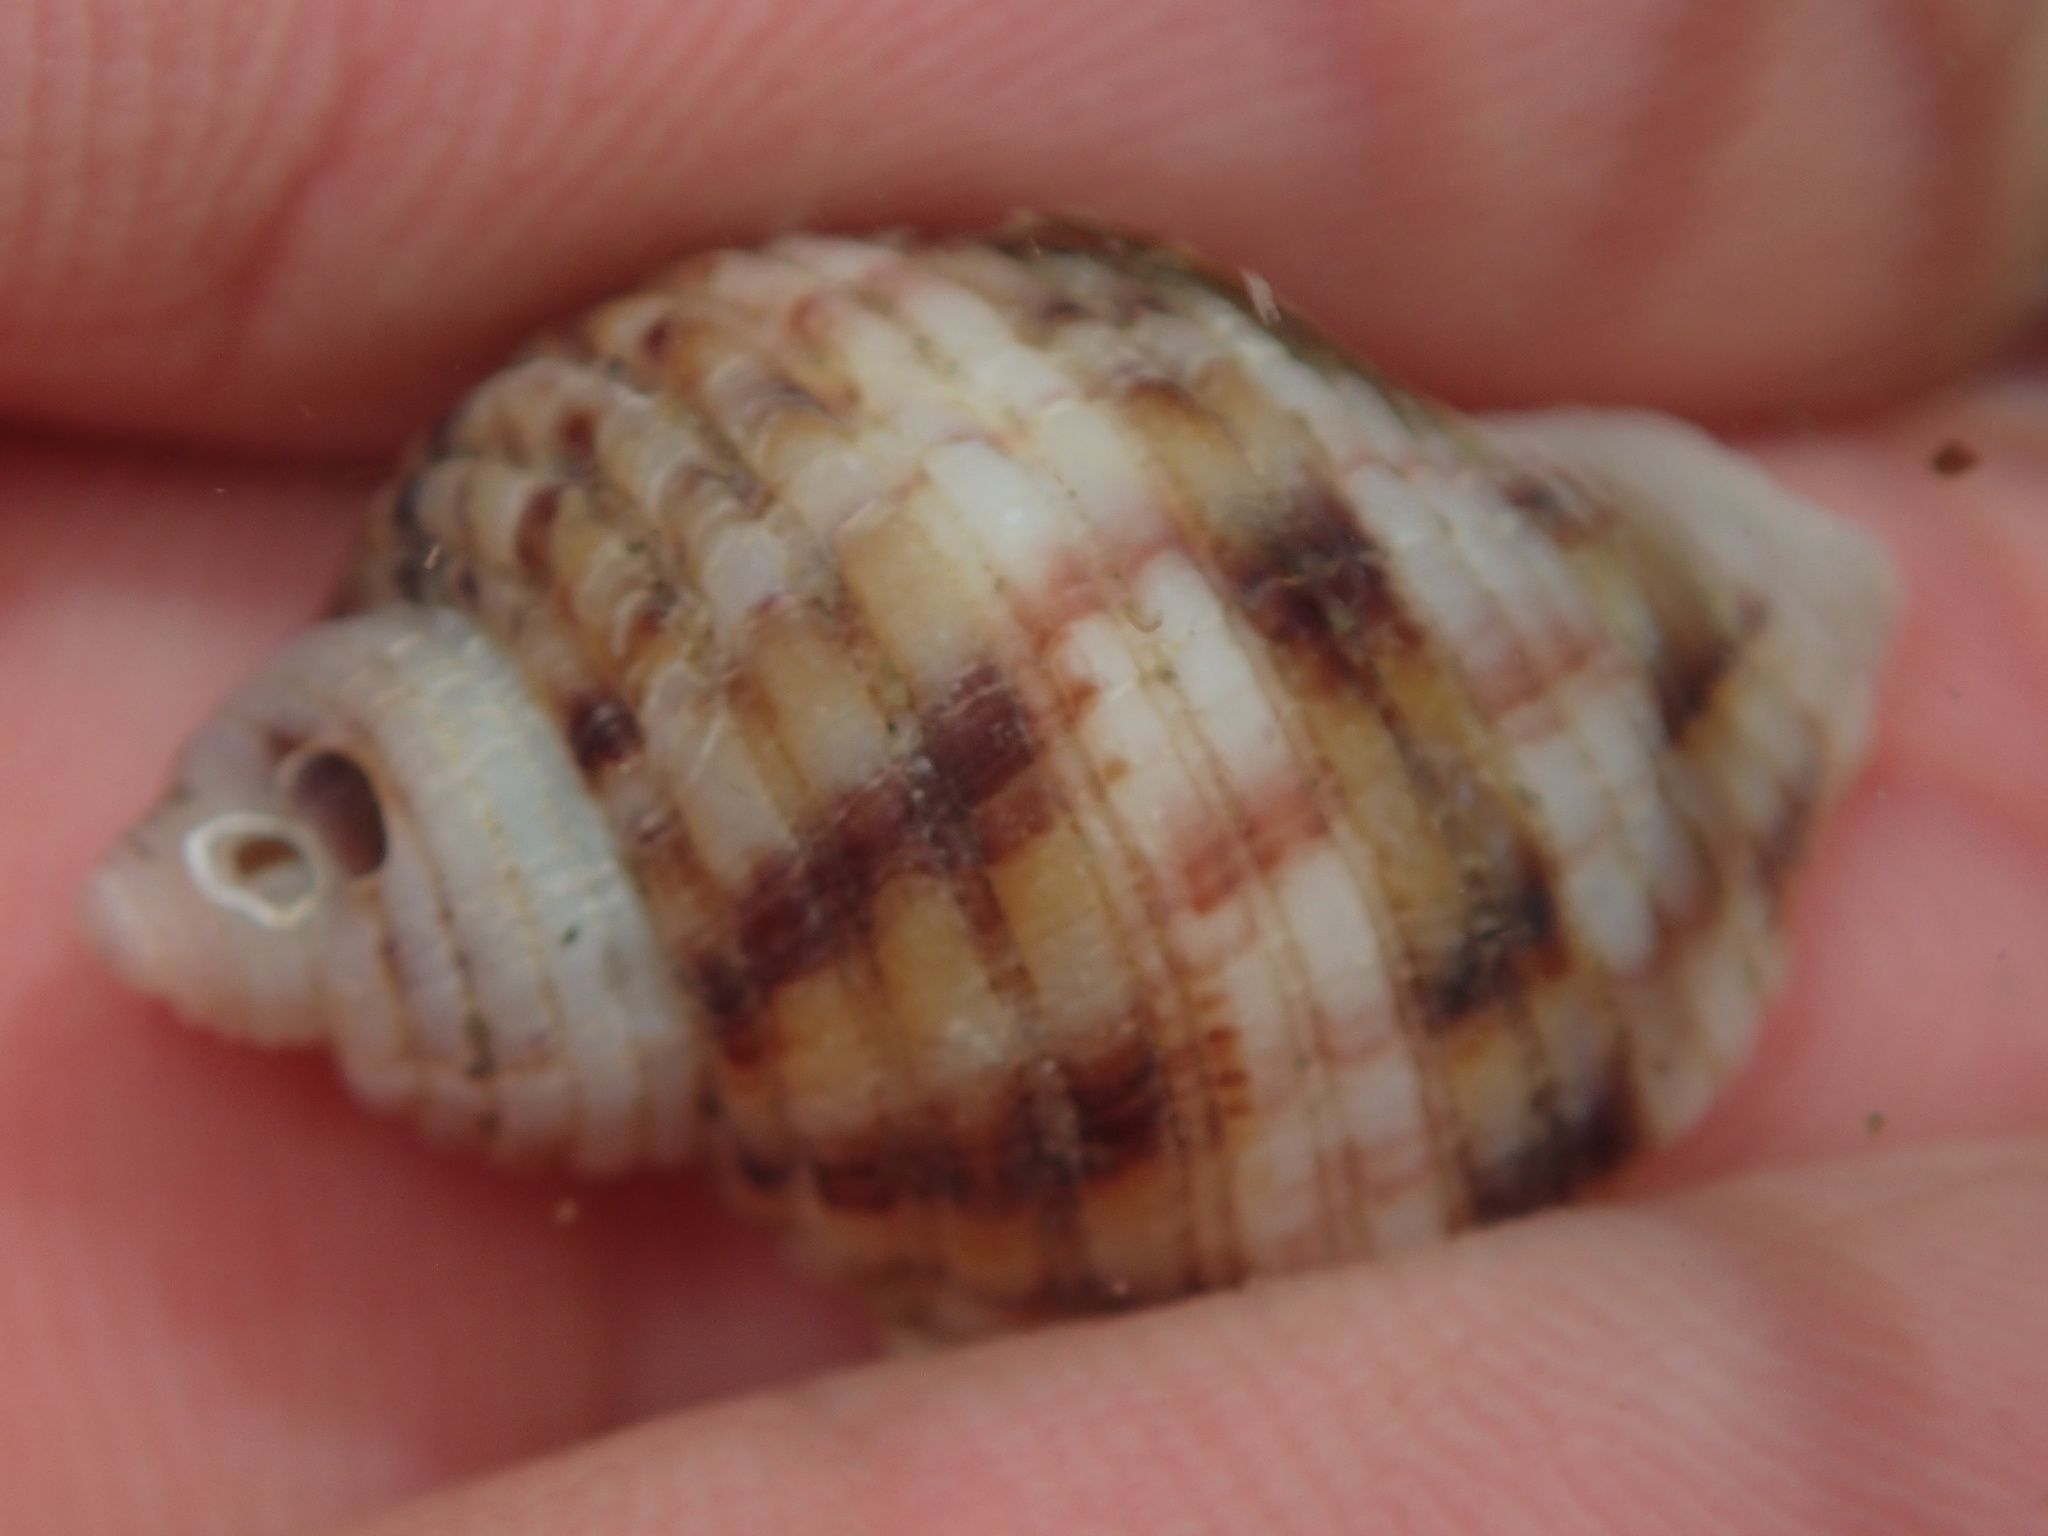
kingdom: Animalia
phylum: Mollusca
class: Gastropoda
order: Neogastropoda
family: Muricidae
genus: Nucella
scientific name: Nucella canaliculata
